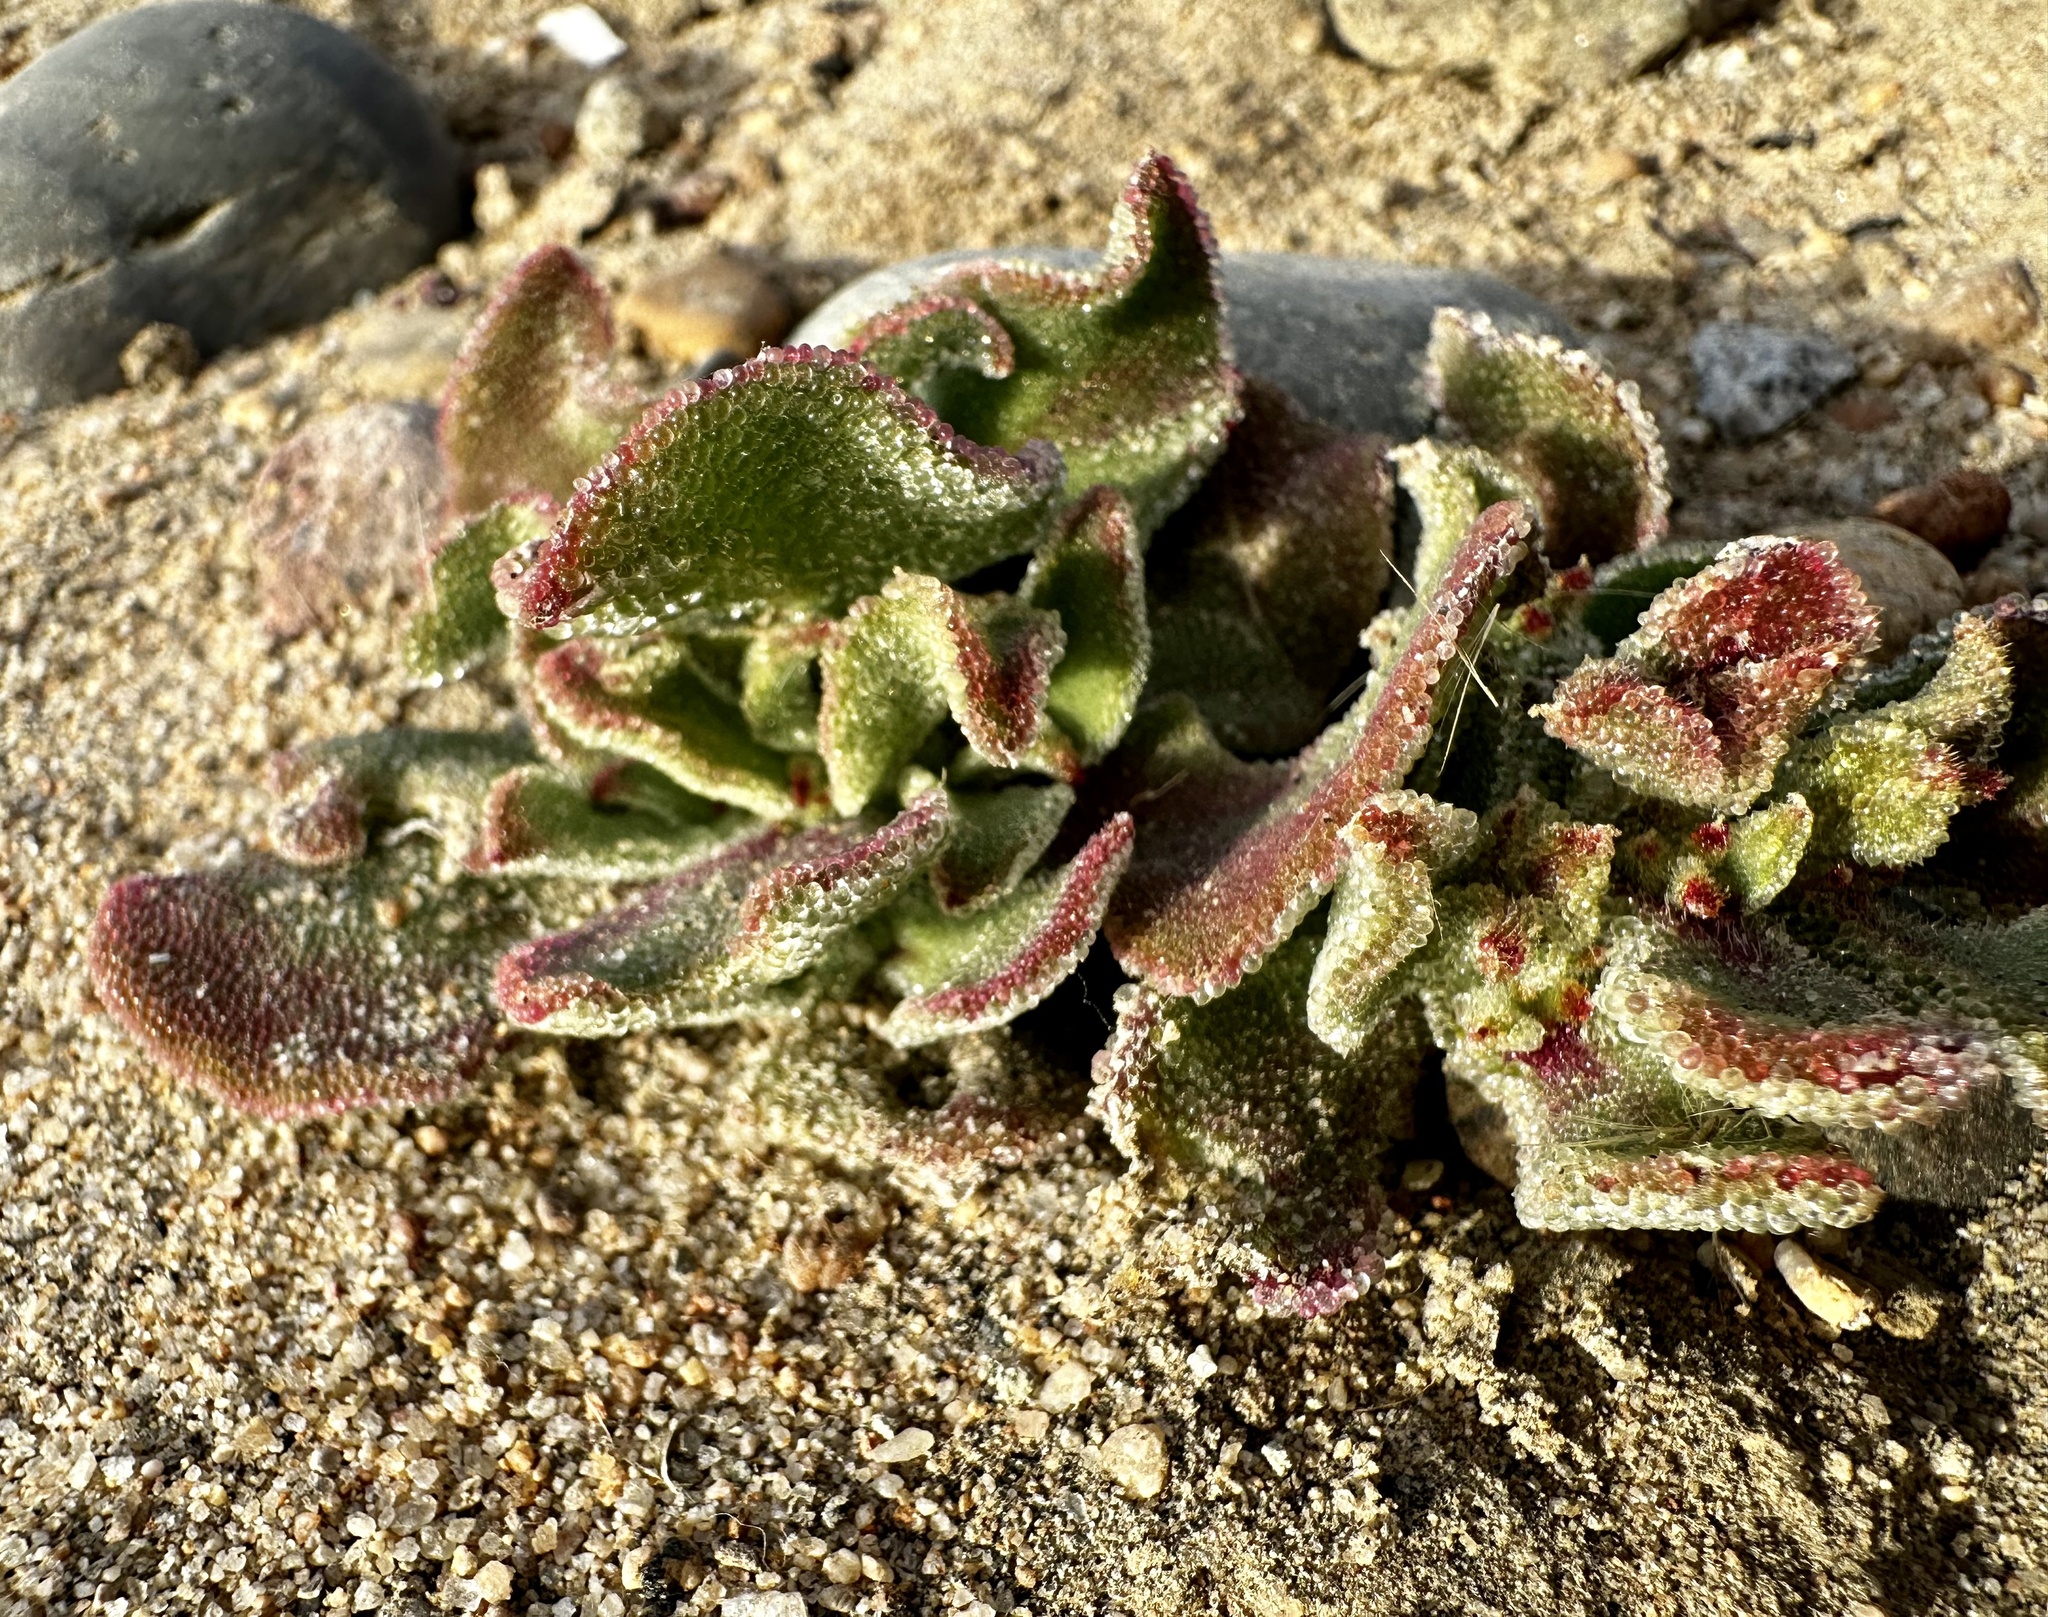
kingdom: Plantae
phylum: Tracheophyta
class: Magnoliopsida
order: Caryophyllales
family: Aizoaceae
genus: Mesembryanthemum
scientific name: Mesembryanthemum crystallinum
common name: Common iceplant
